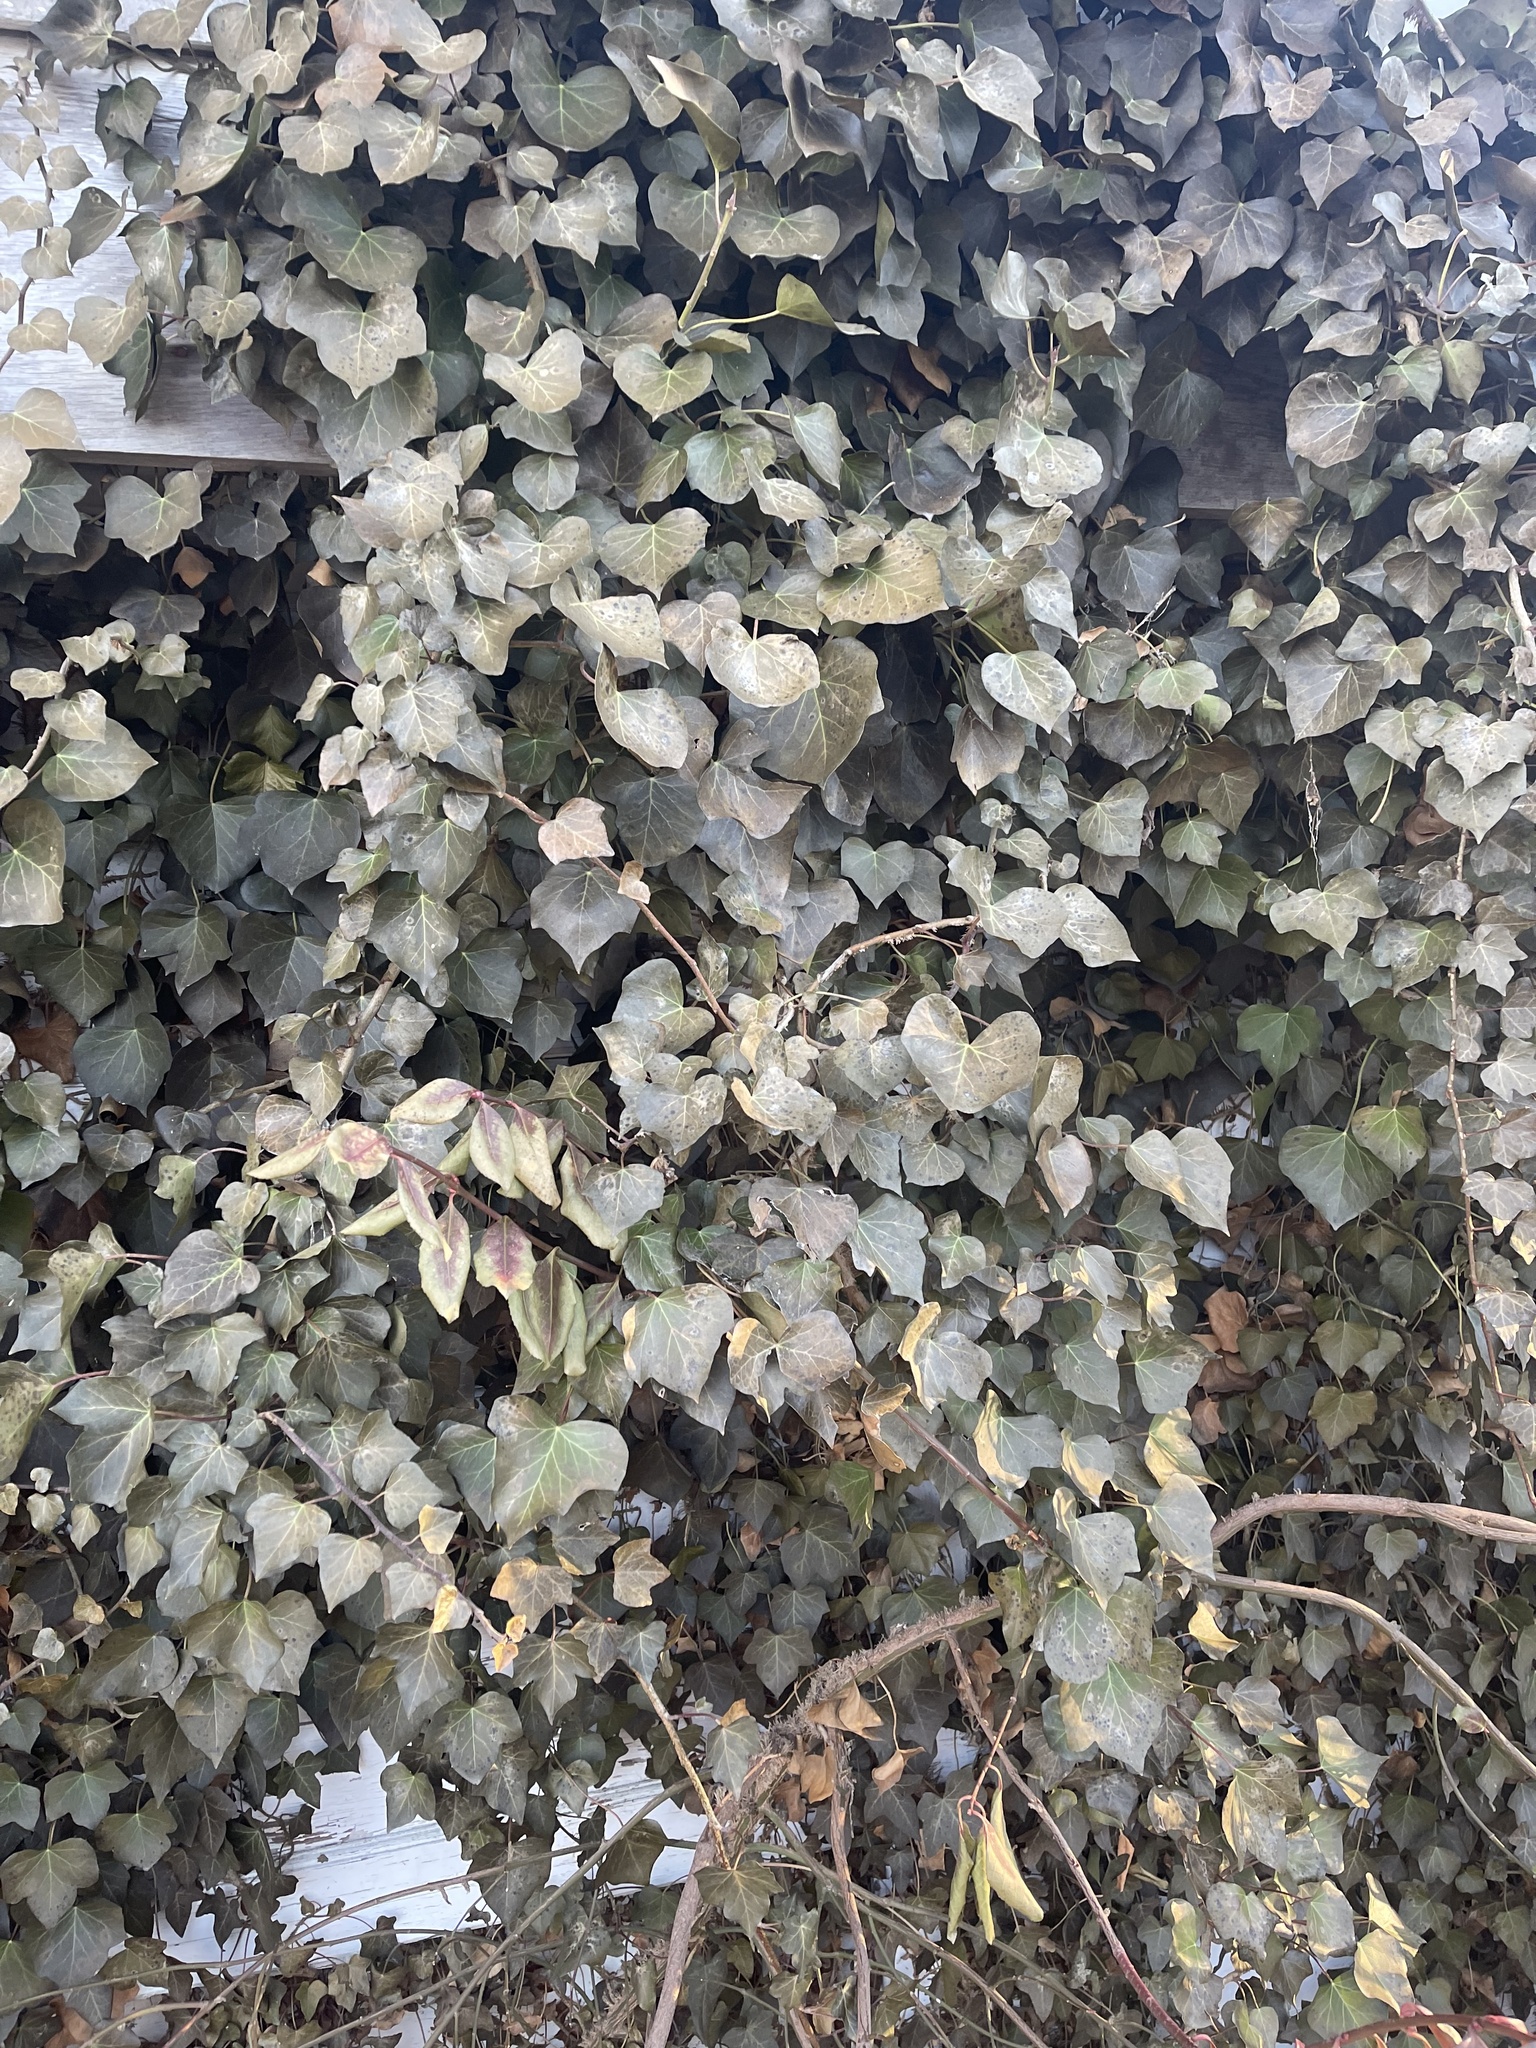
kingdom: Plantae
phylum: Tracheophyta
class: Magnoliopsida
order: Apiales
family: Araliaceae
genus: Hedera
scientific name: Hedera helix
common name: Ivy
